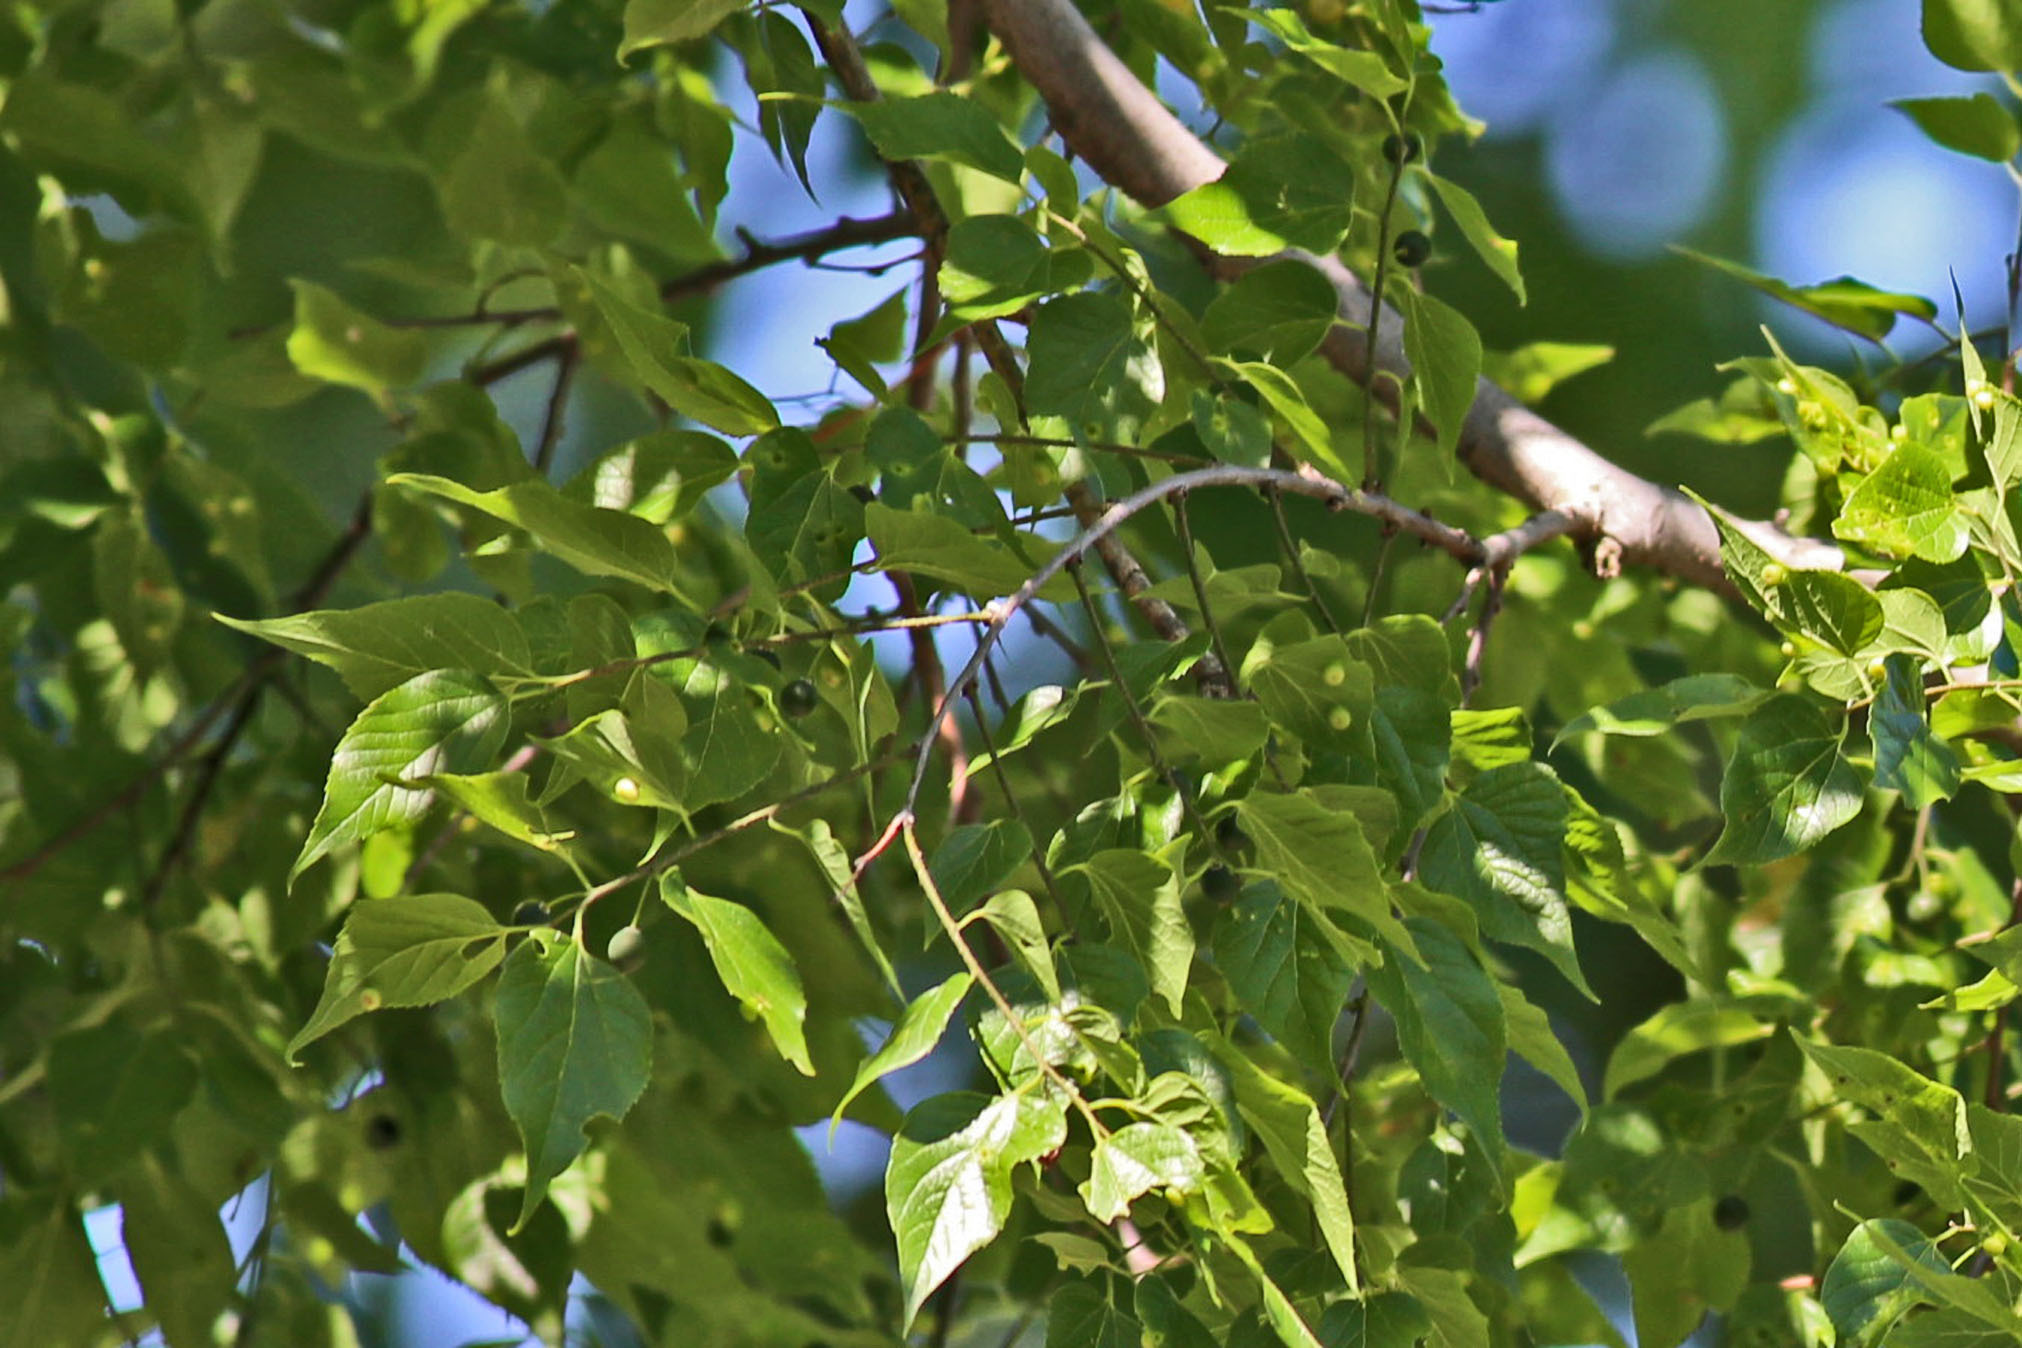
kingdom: Plantae
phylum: Tracheophyta
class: Magnoliopsida
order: Rosales
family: Cannabaceae
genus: Celtis
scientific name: Celtis occidentalis
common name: Common hackberry
